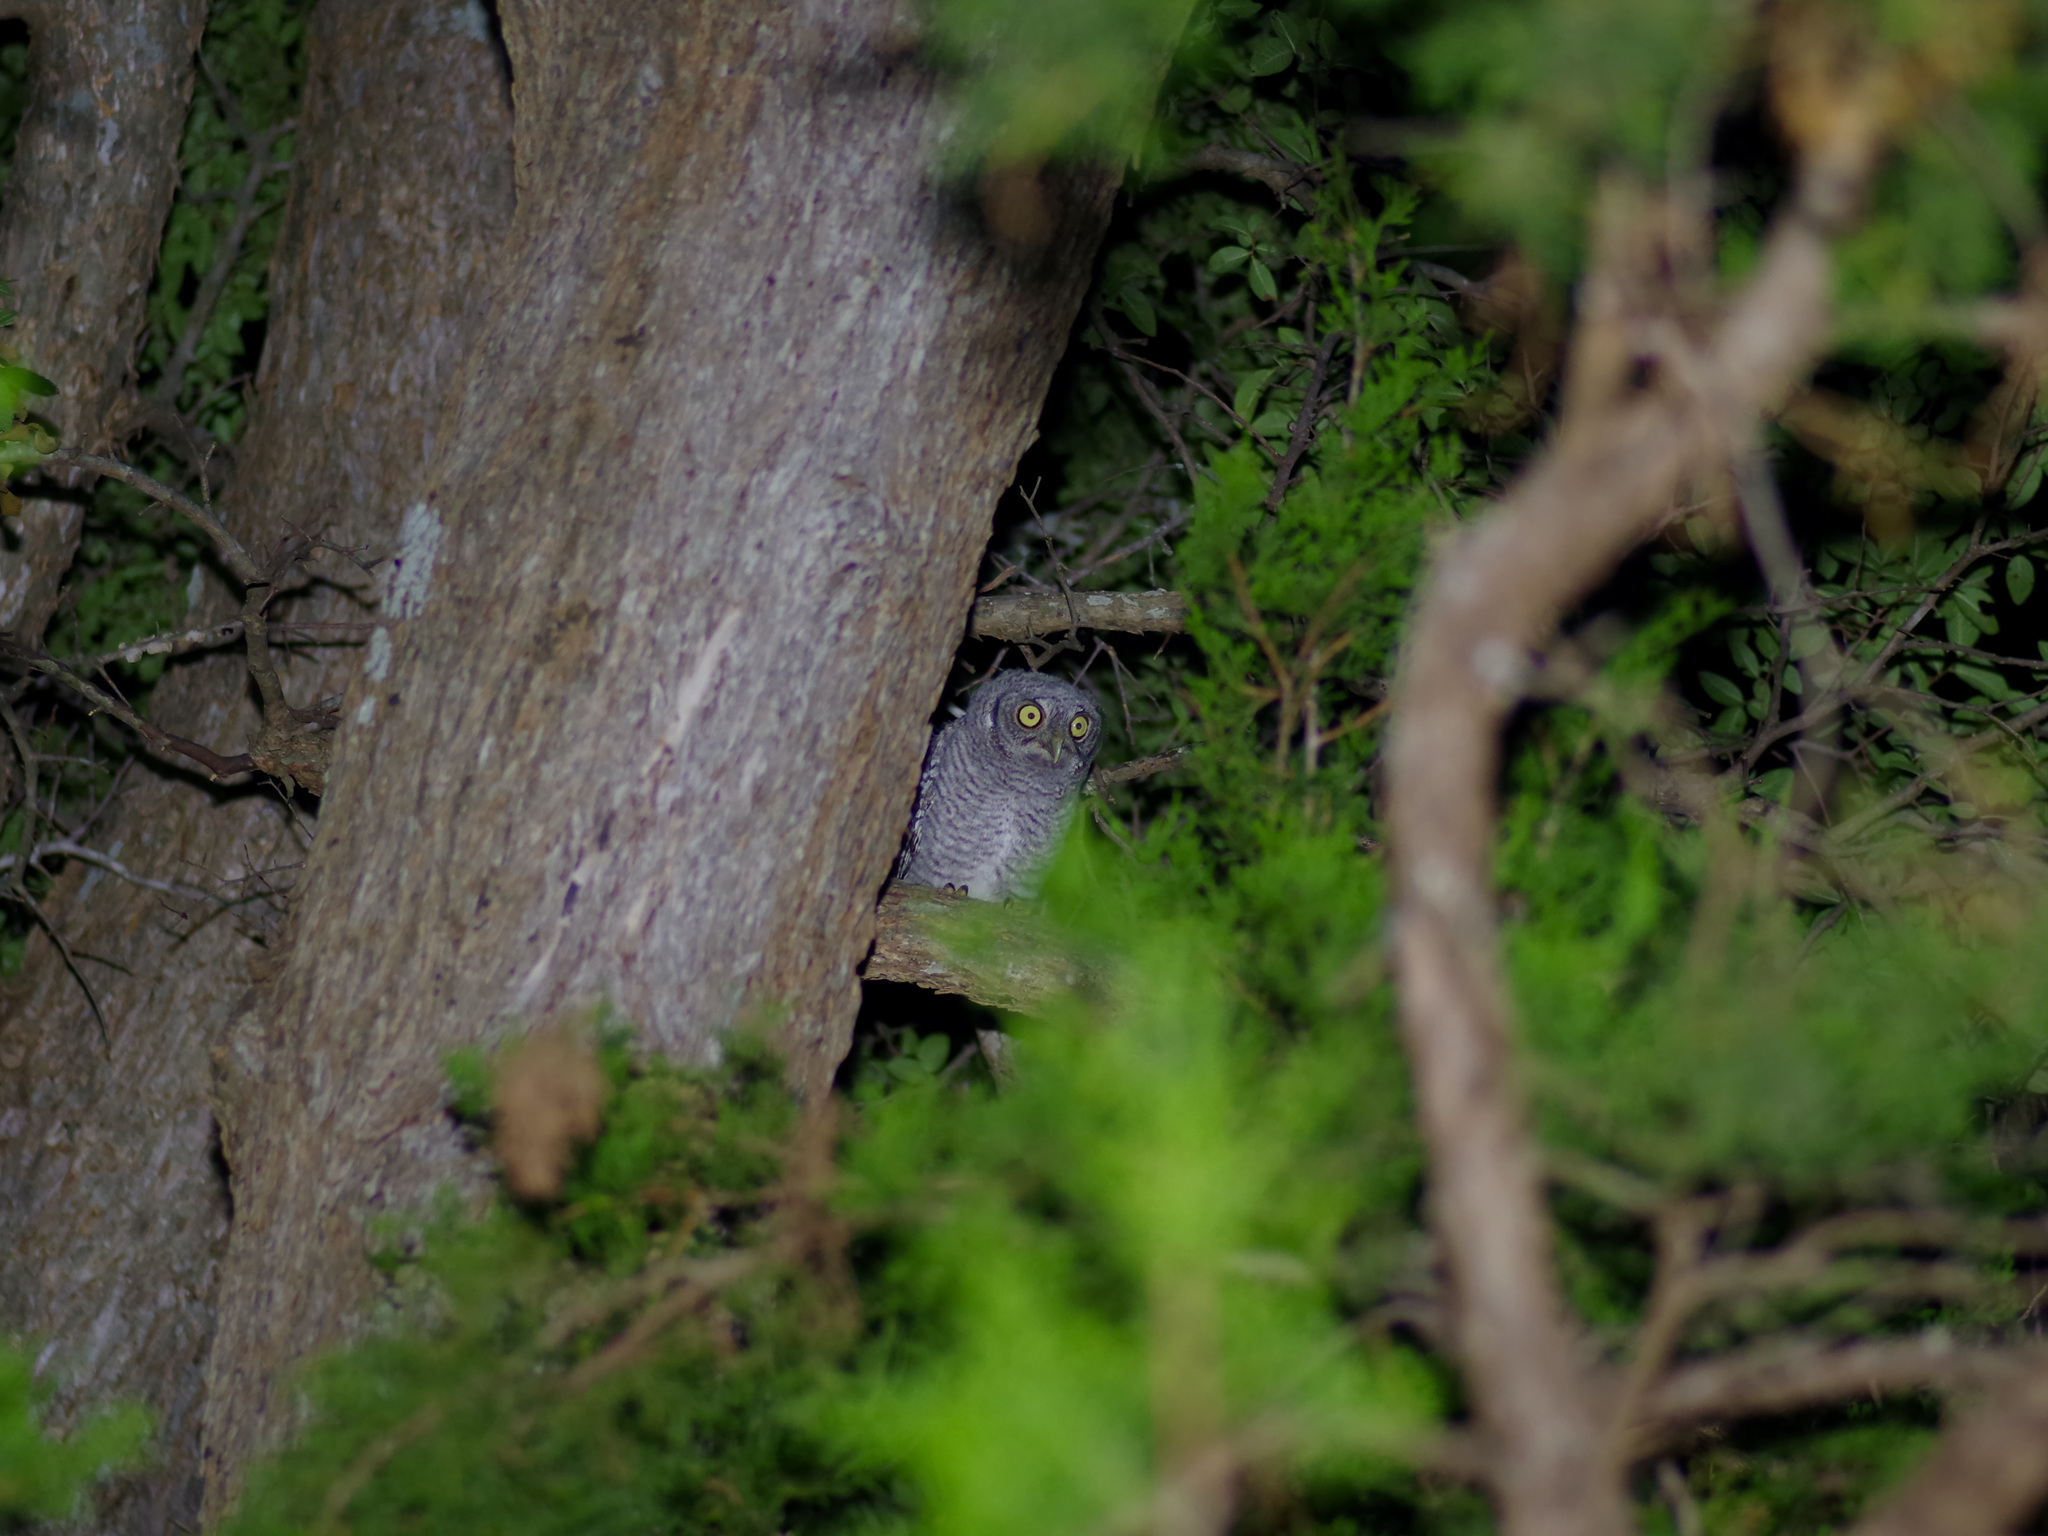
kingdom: Animalia
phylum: Chordata
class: Aves
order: Strigiformes
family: Strigidae
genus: Megascops
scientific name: Megascops asio
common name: Eastern screech-owl
